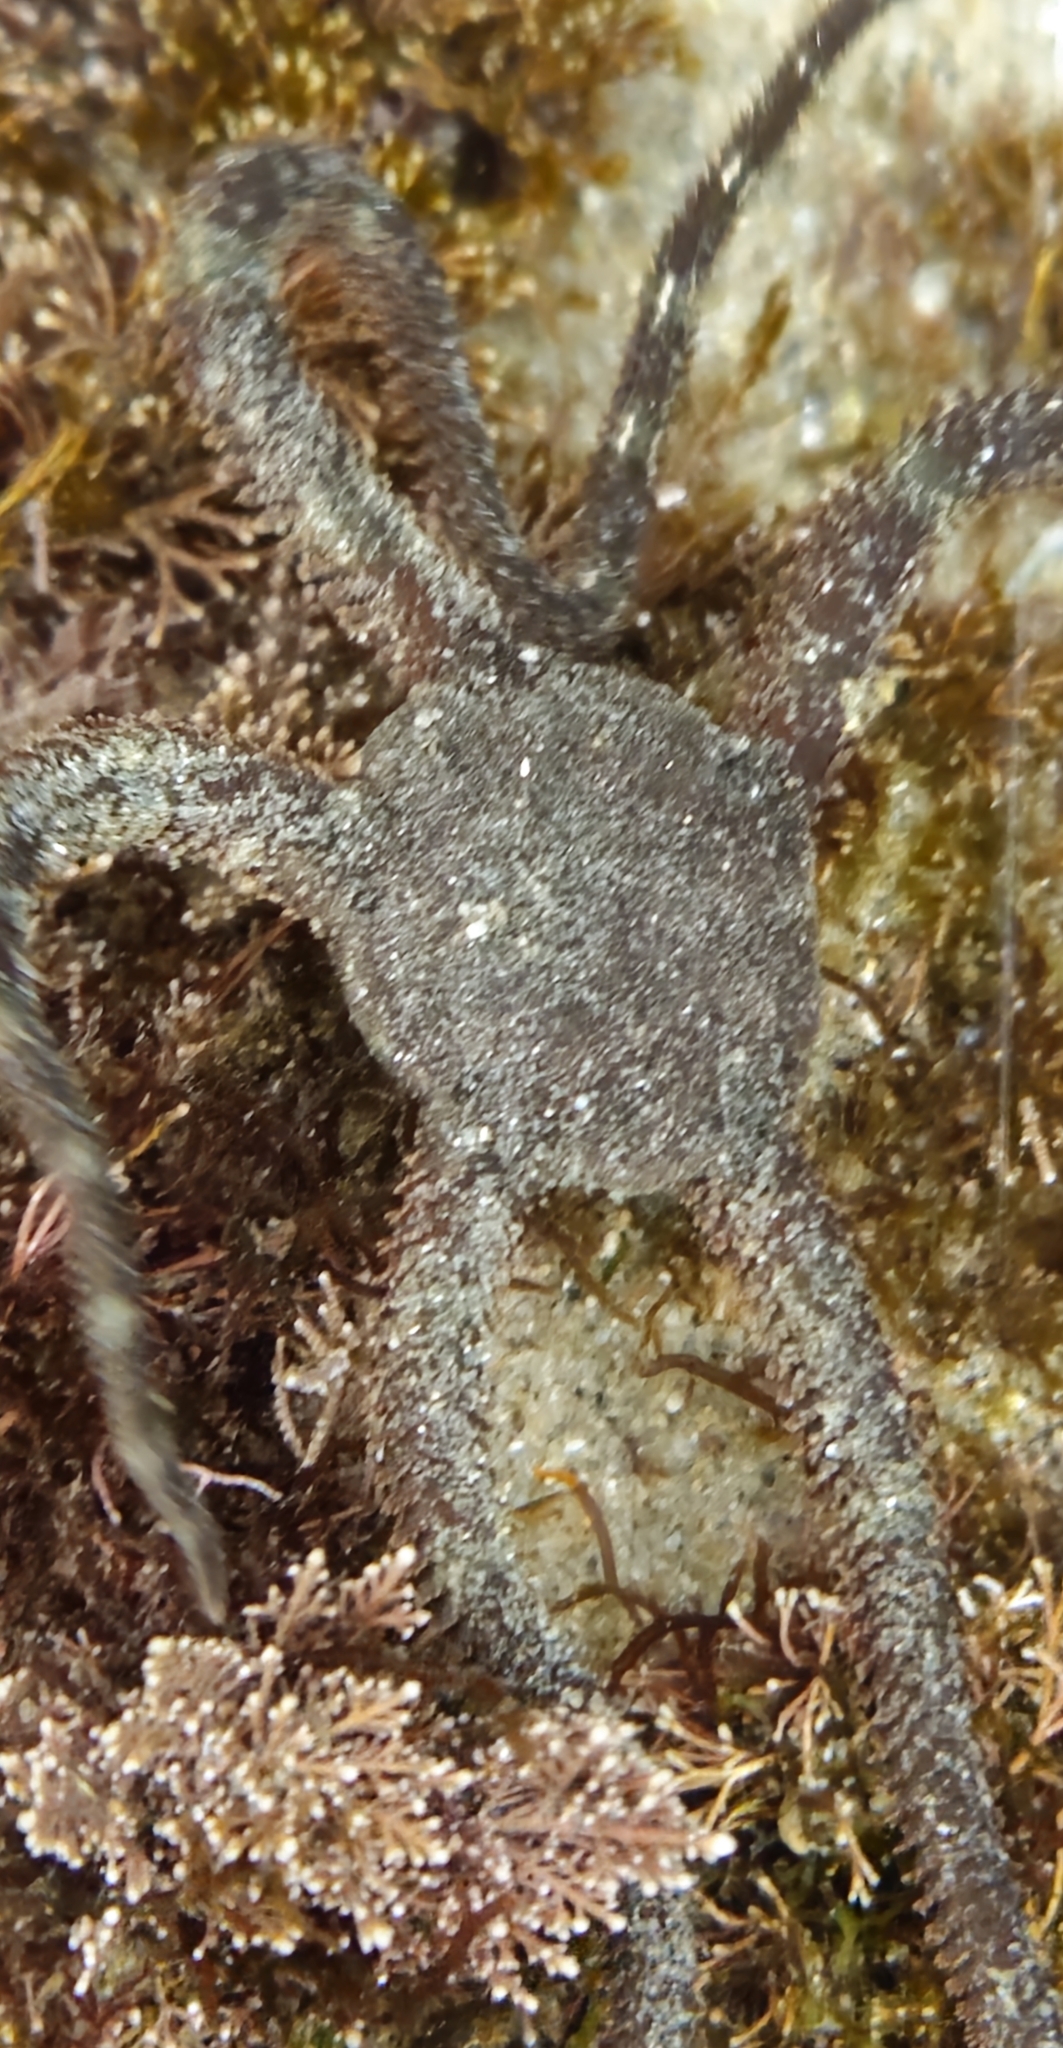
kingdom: Animalia
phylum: Echinodermata
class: Ophiuroidea
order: Ophiacanthida
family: Ophiodermatidae
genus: Ophioderma
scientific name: Ophioderma panamense
